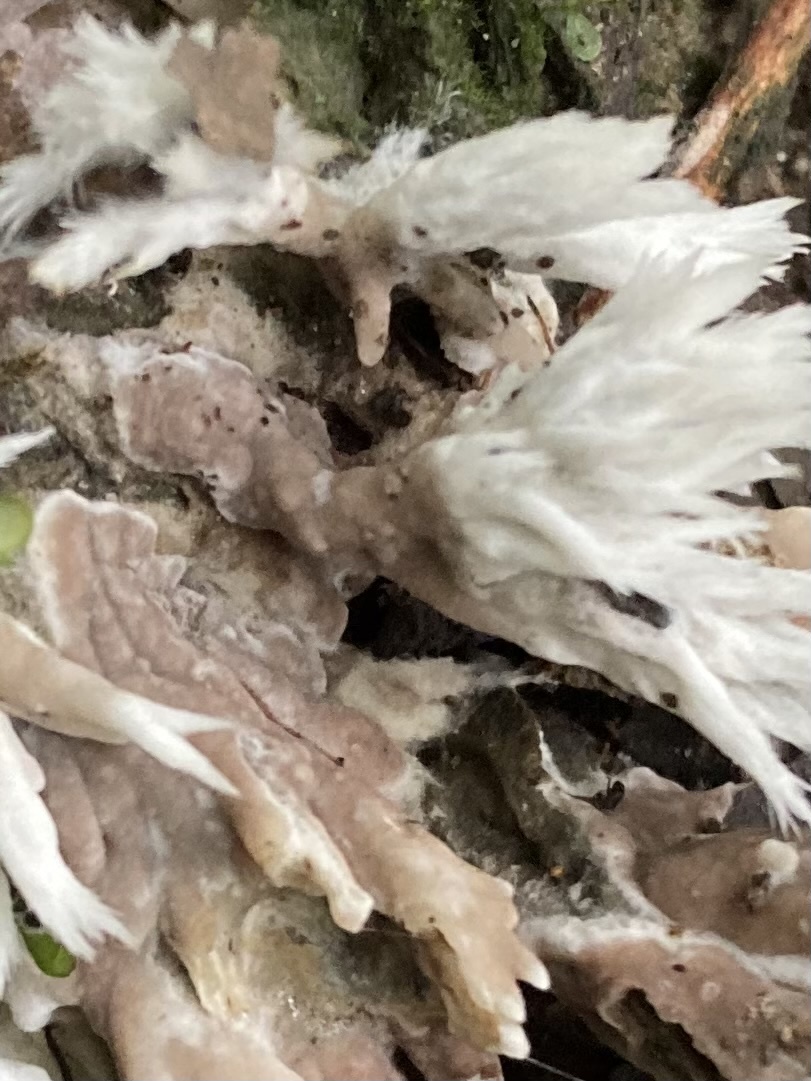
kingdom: Fungi
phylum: Basidiomycota
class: Agaricomycetes
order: Thelephorales
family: Thelephoraceae
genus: Thelephora
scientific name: Thelephora penicillata
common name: Urchin earthfan
